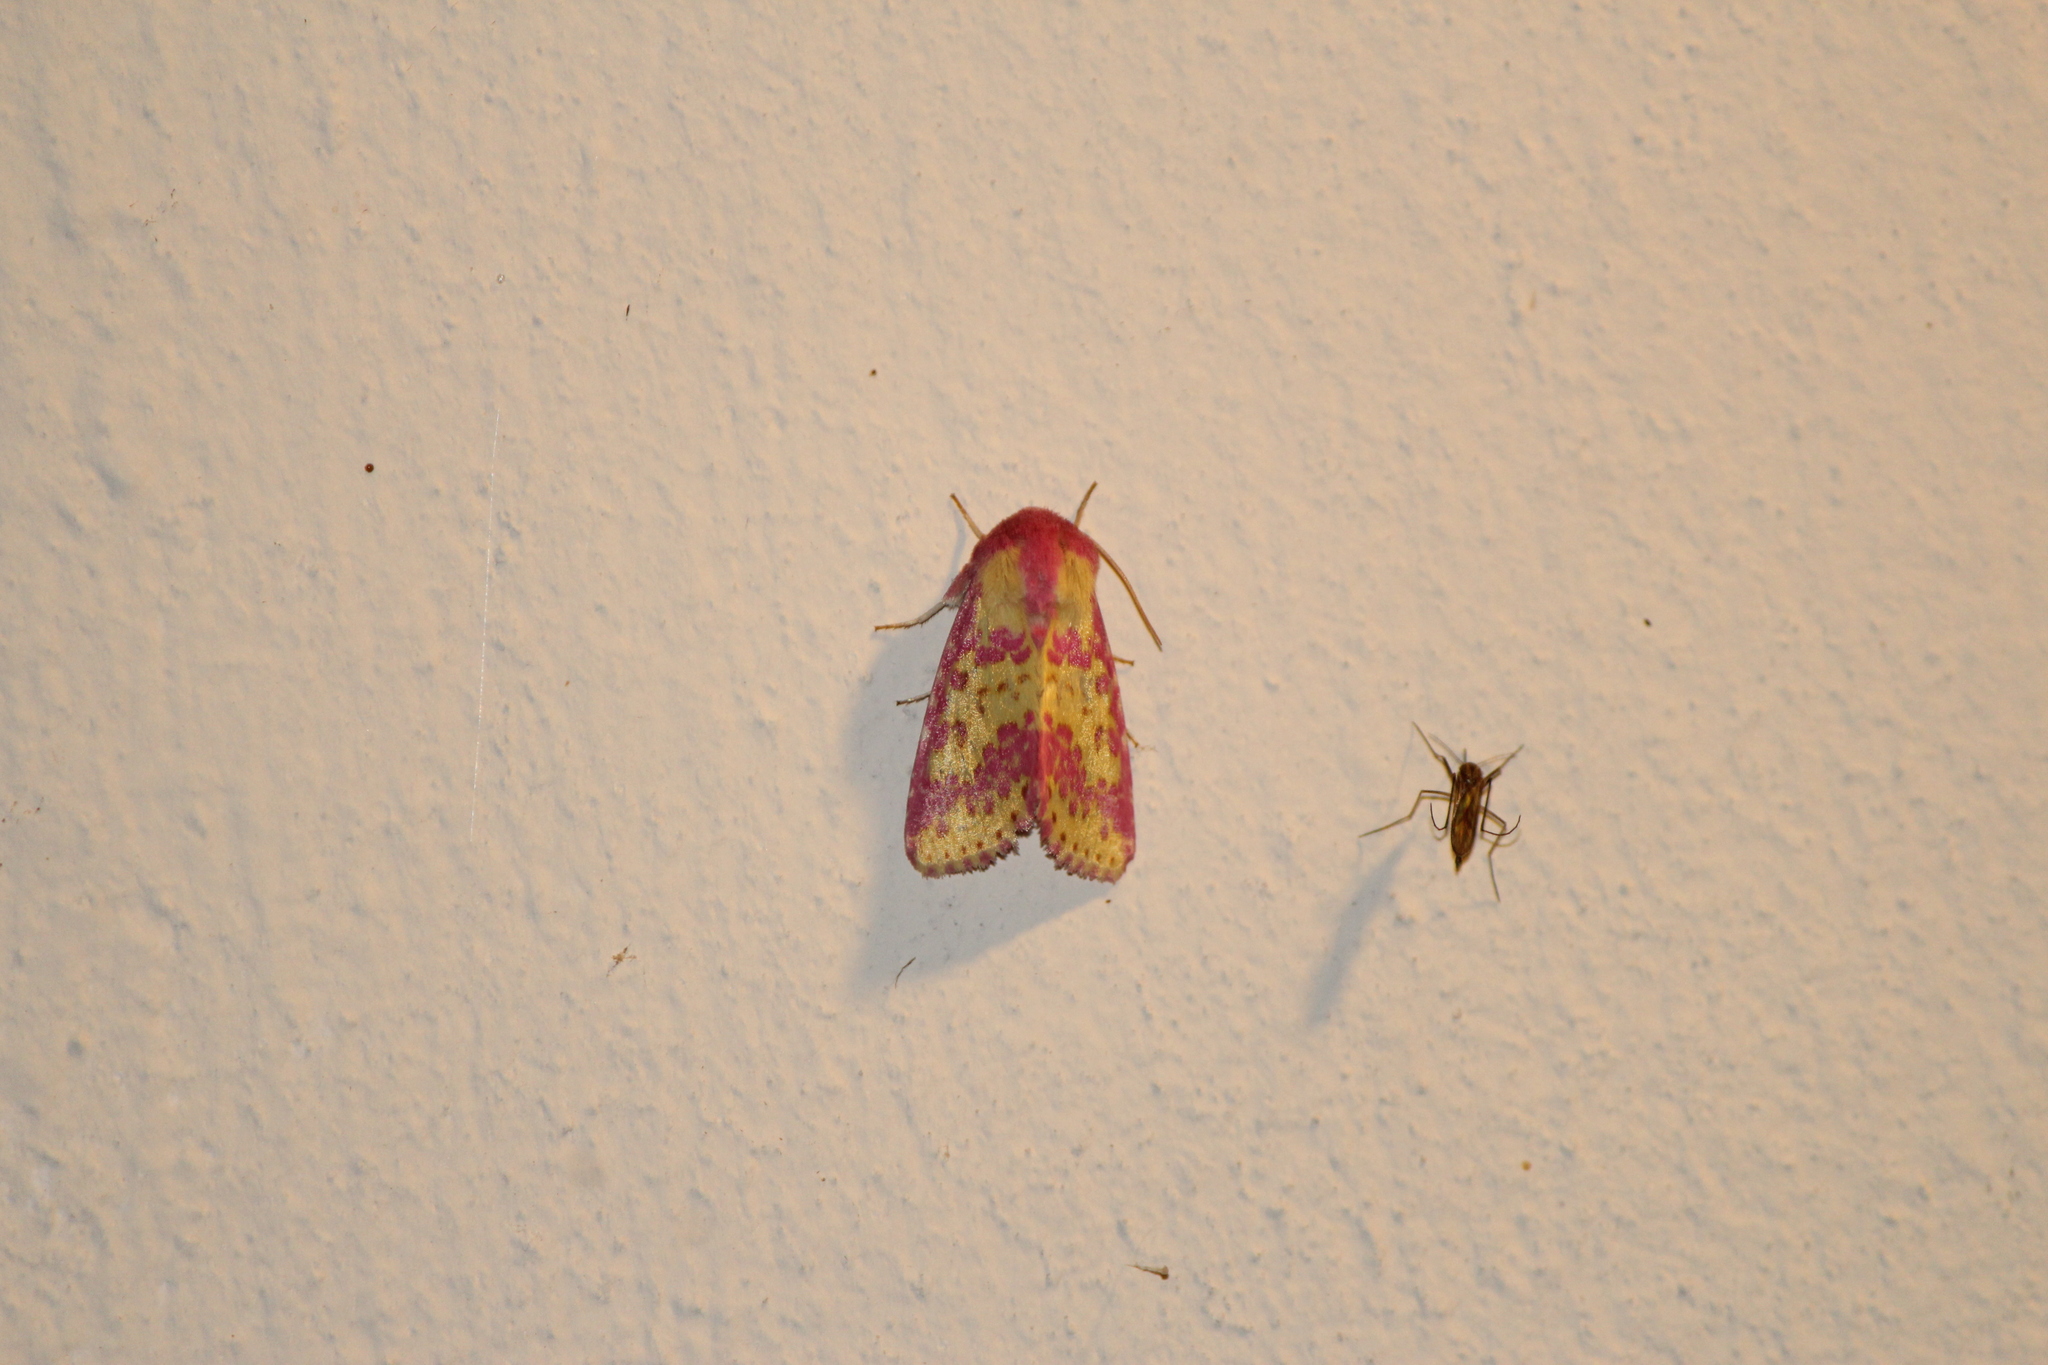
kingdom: Animalia
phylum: Arthropoda
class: Insecta
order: Lepidoptera
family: Noctuidae
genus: Erythroecia
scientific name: Erythroecia euposis
